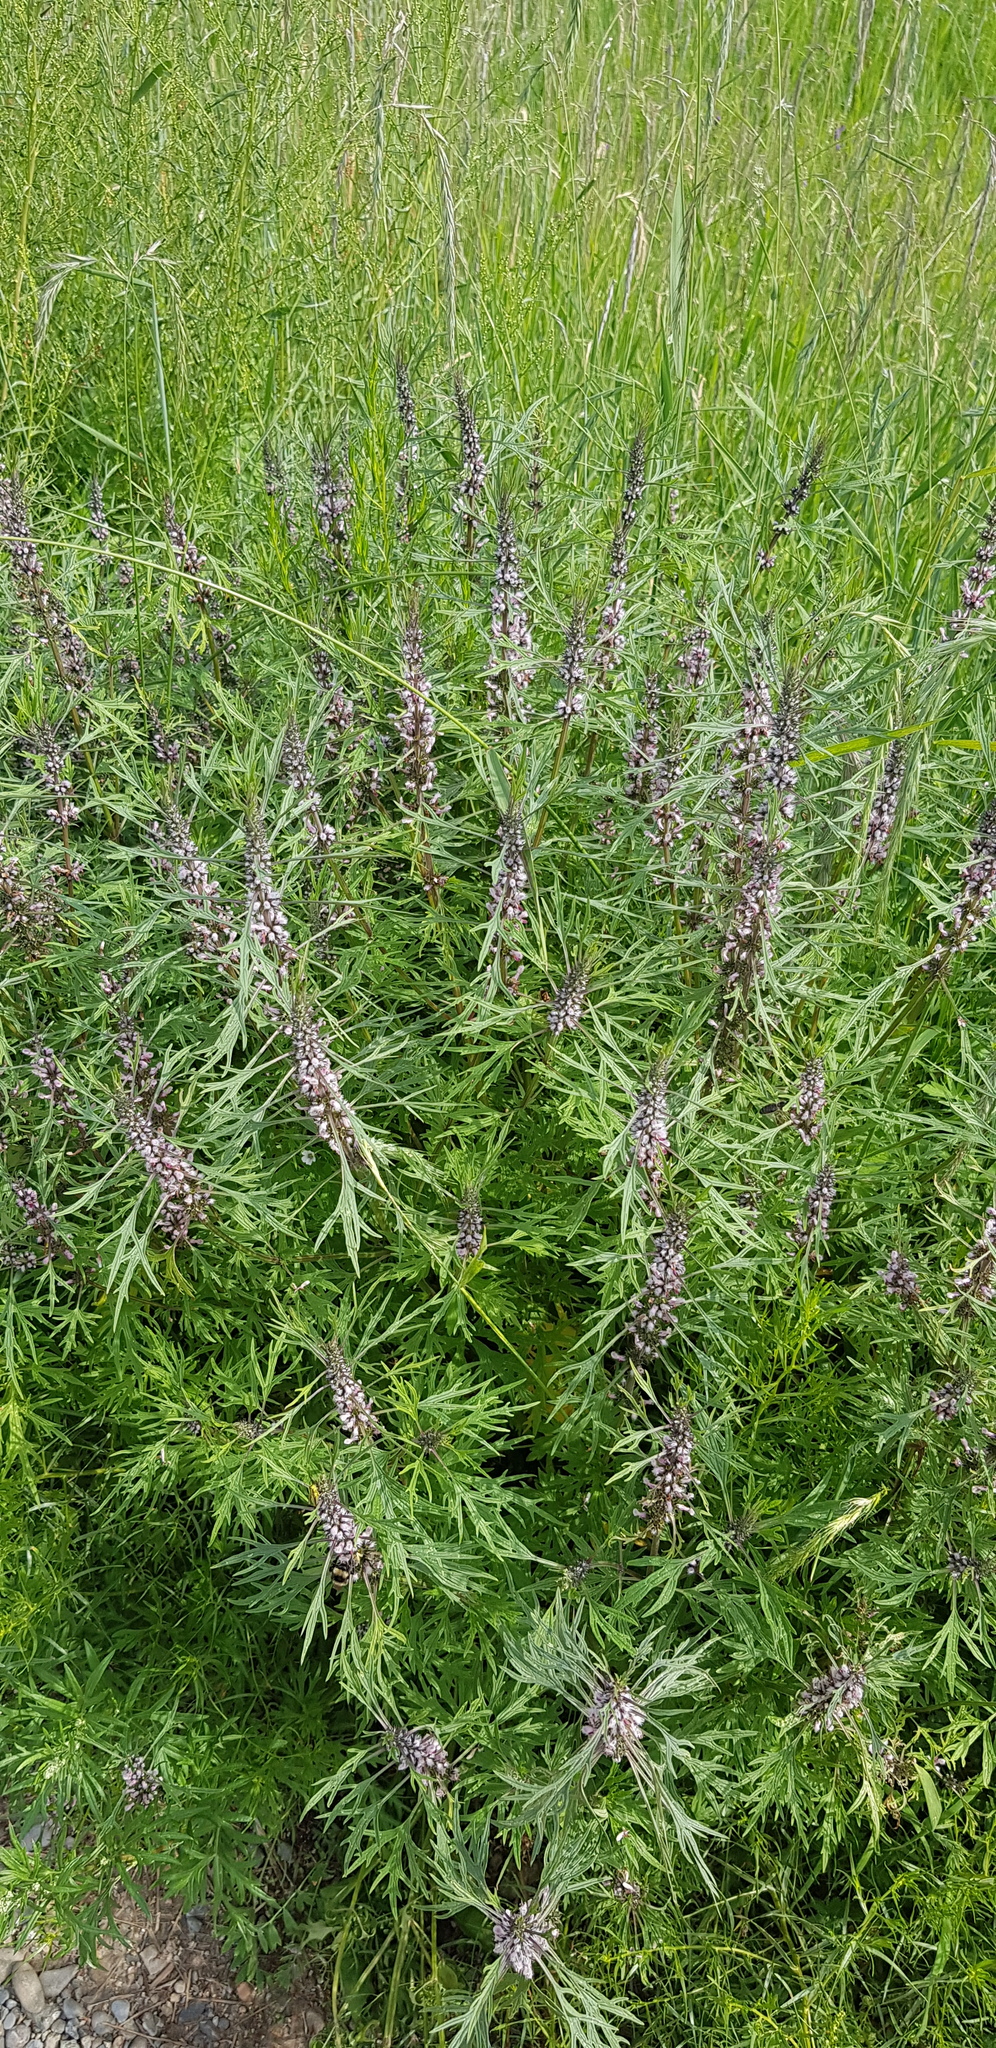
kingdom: Plantae
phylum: Tracheophyta
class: Magnoliopsida
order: Lamiales
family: Lamiaceae
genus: Leonurus
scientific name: Leonurus deminutus
